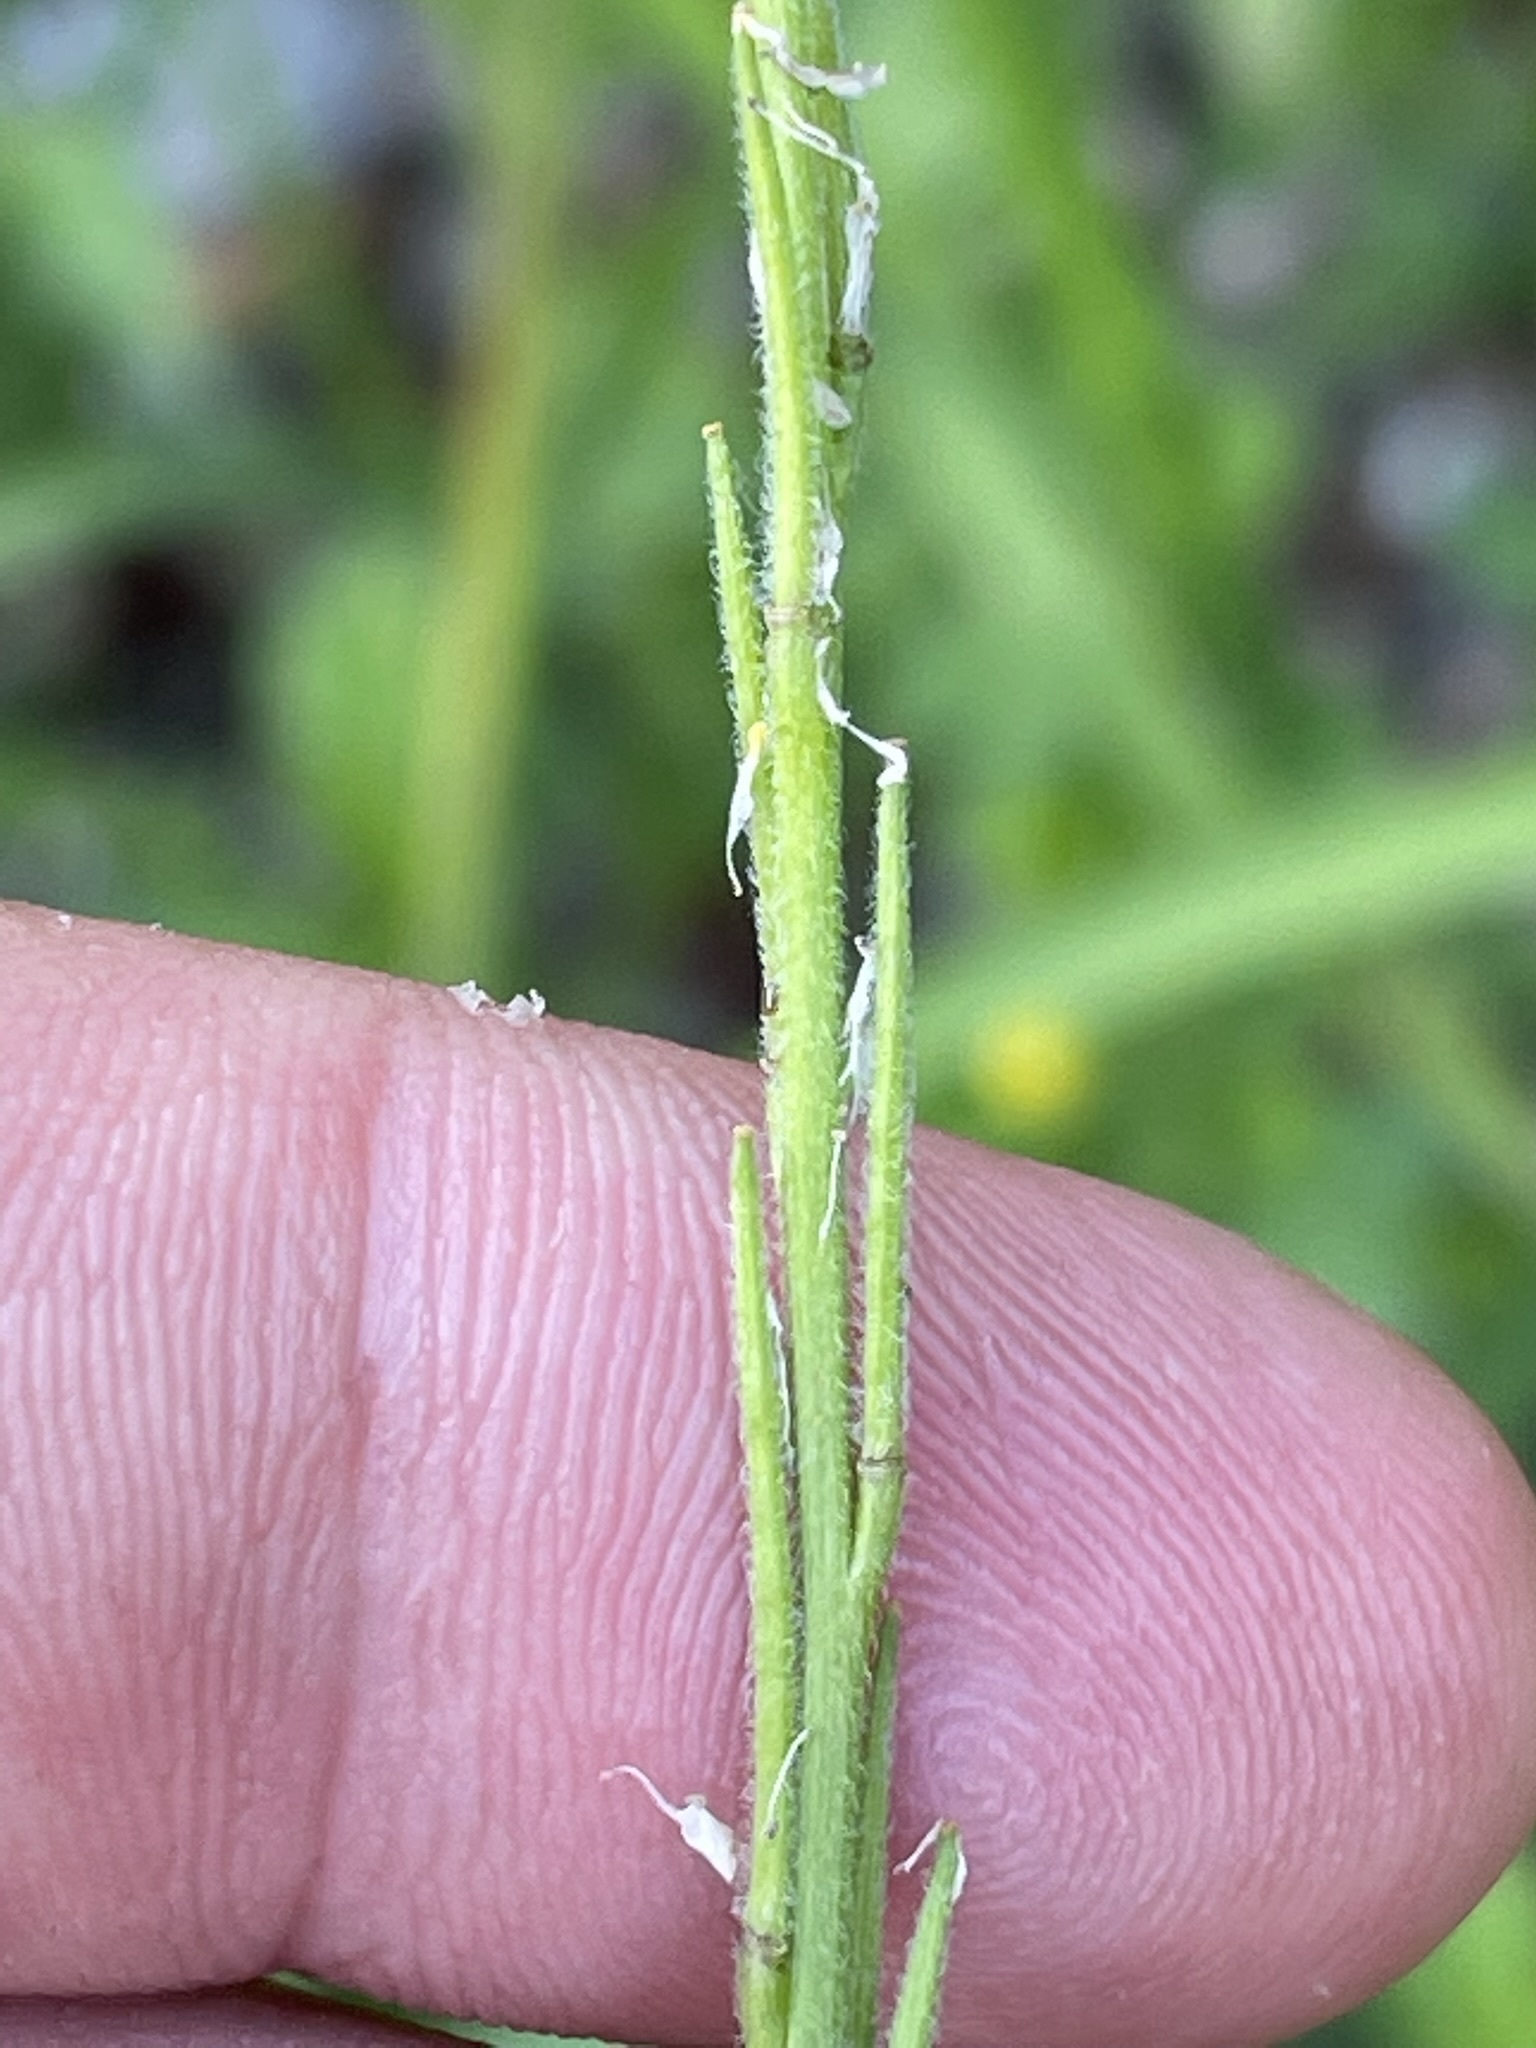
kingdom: Plantae
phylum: Tracheophyta
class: Magnoliopsida
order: Brassicales
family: Brassicaceae
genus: Sisymbrium
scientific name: Sisymbrium officinale
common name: Hedge mustard
